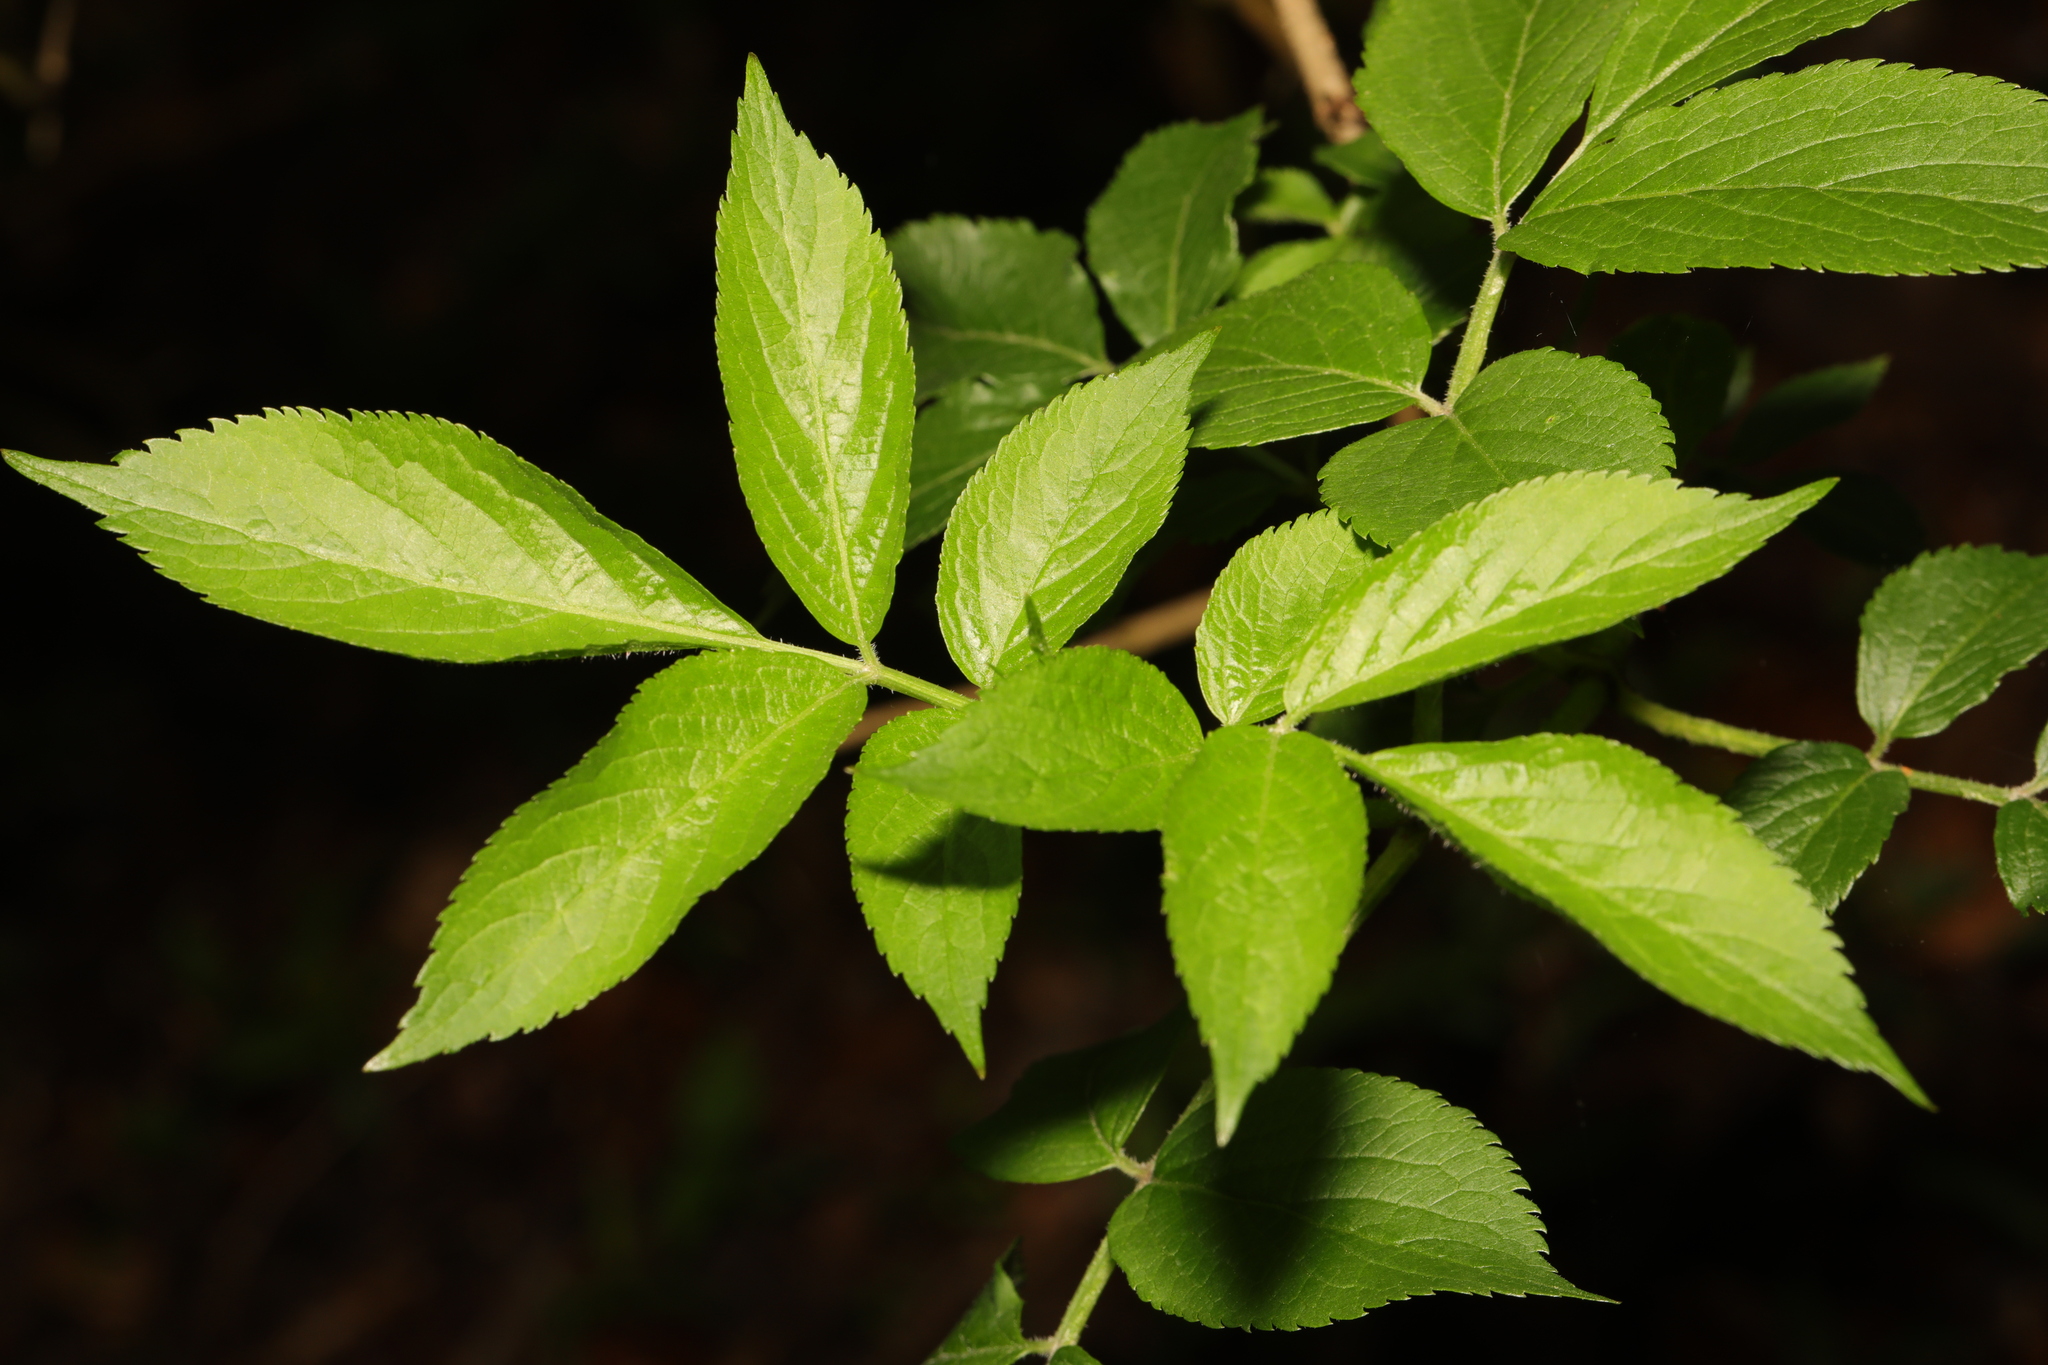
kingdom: Plantae
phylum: Tracheophyta
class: Magnoliopsida
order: Dipsacales
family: Viburnaceae
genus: Sambucus
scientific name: Sambucus nigra
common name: Elder
